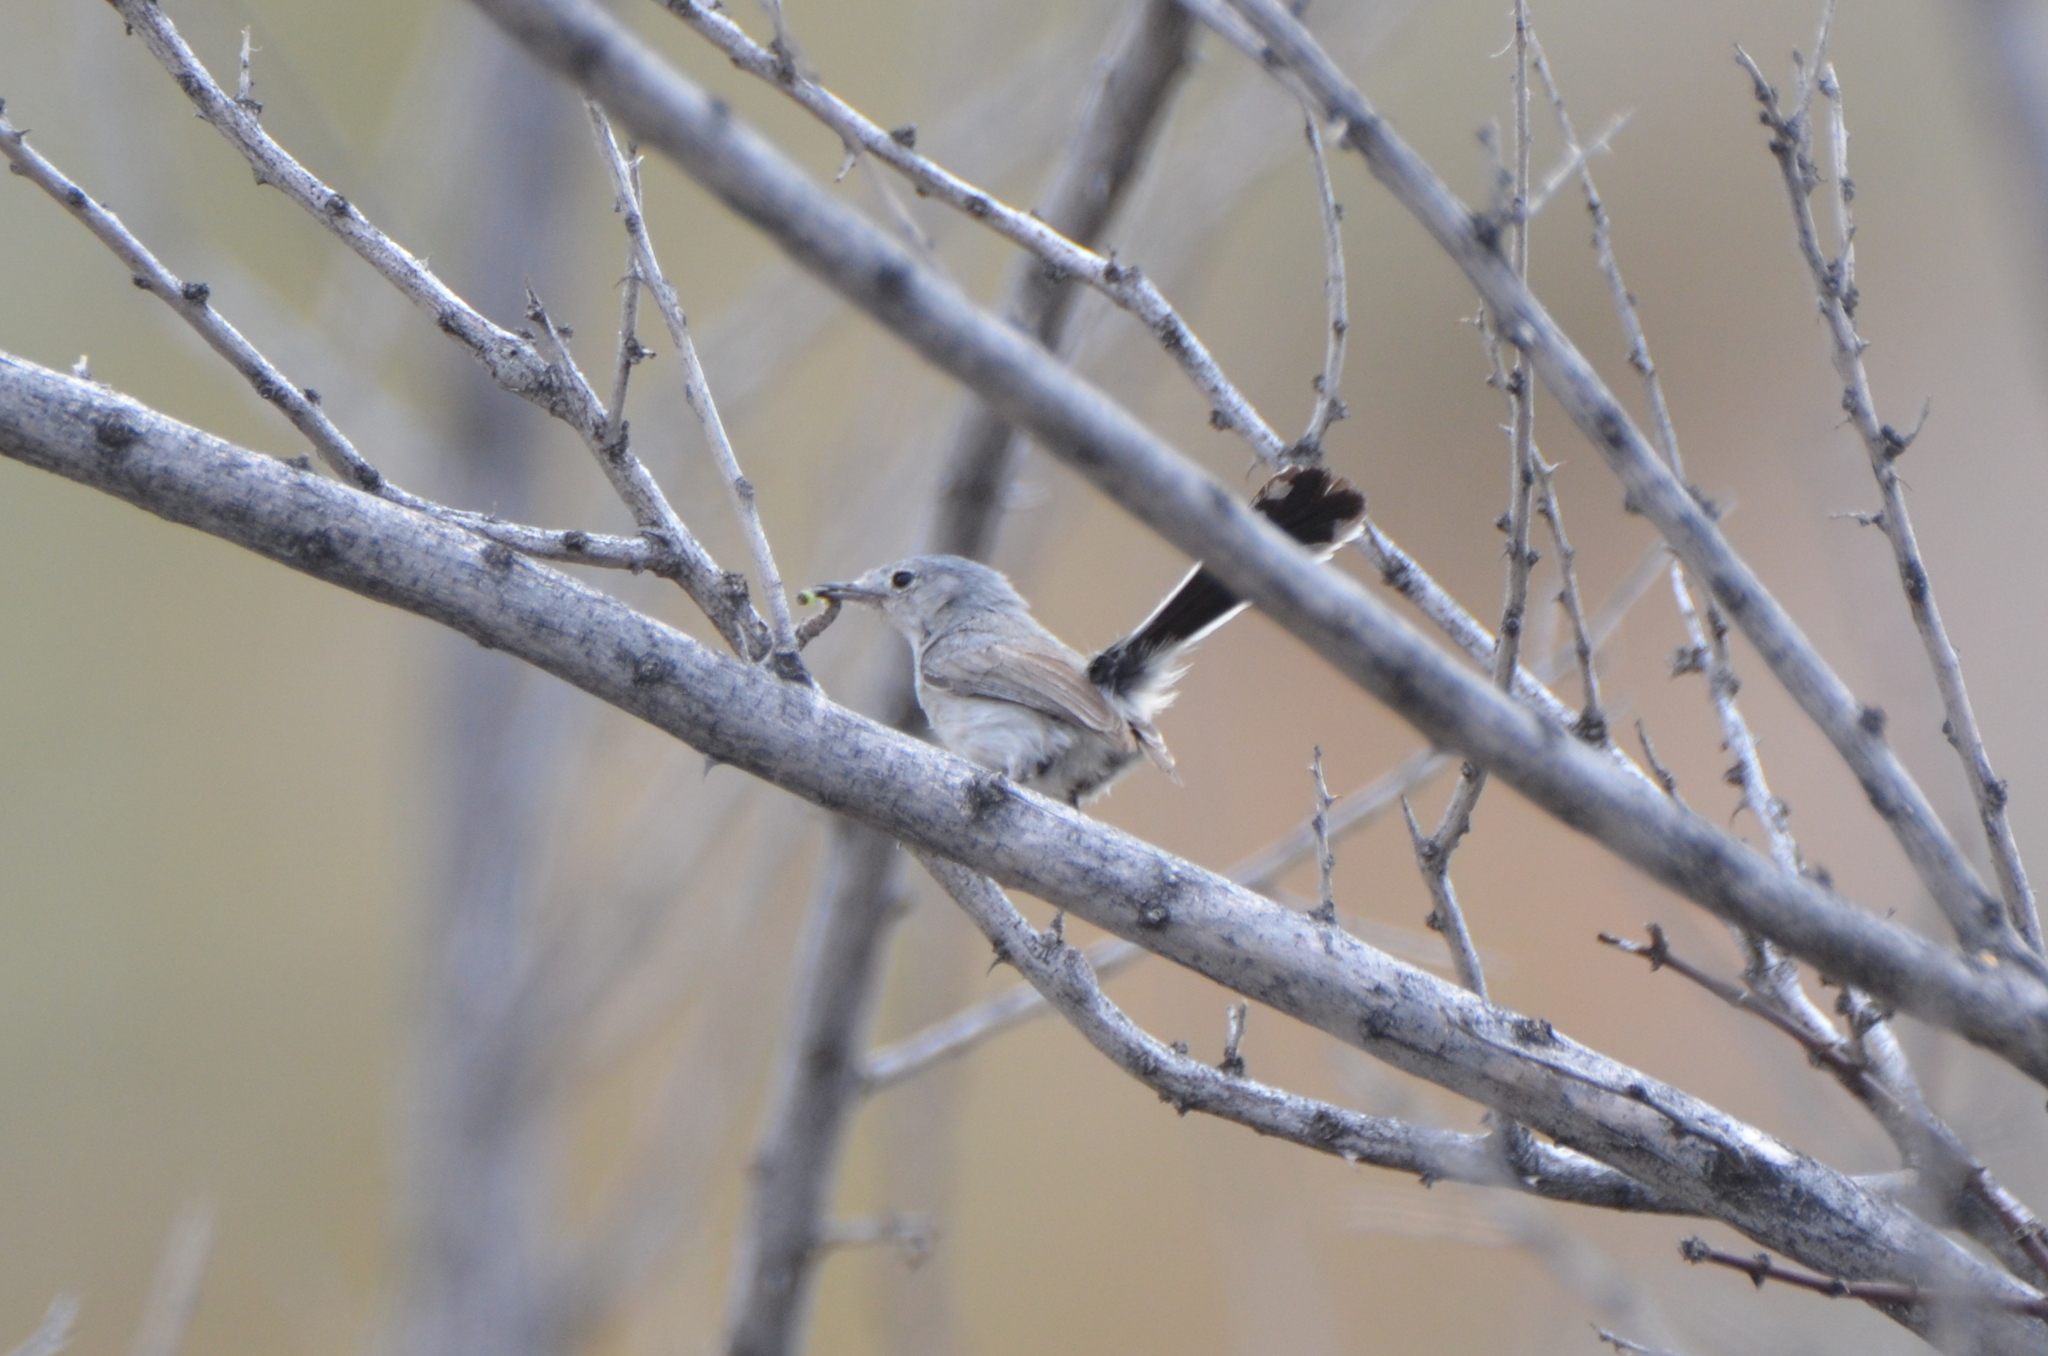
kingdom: Animalia
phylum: Chordata
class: Aves
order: Passeriformes
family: Polioptilidae
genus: Polioptila
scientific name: Polioptila melanura
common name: Black-tailed gnatcatcher
